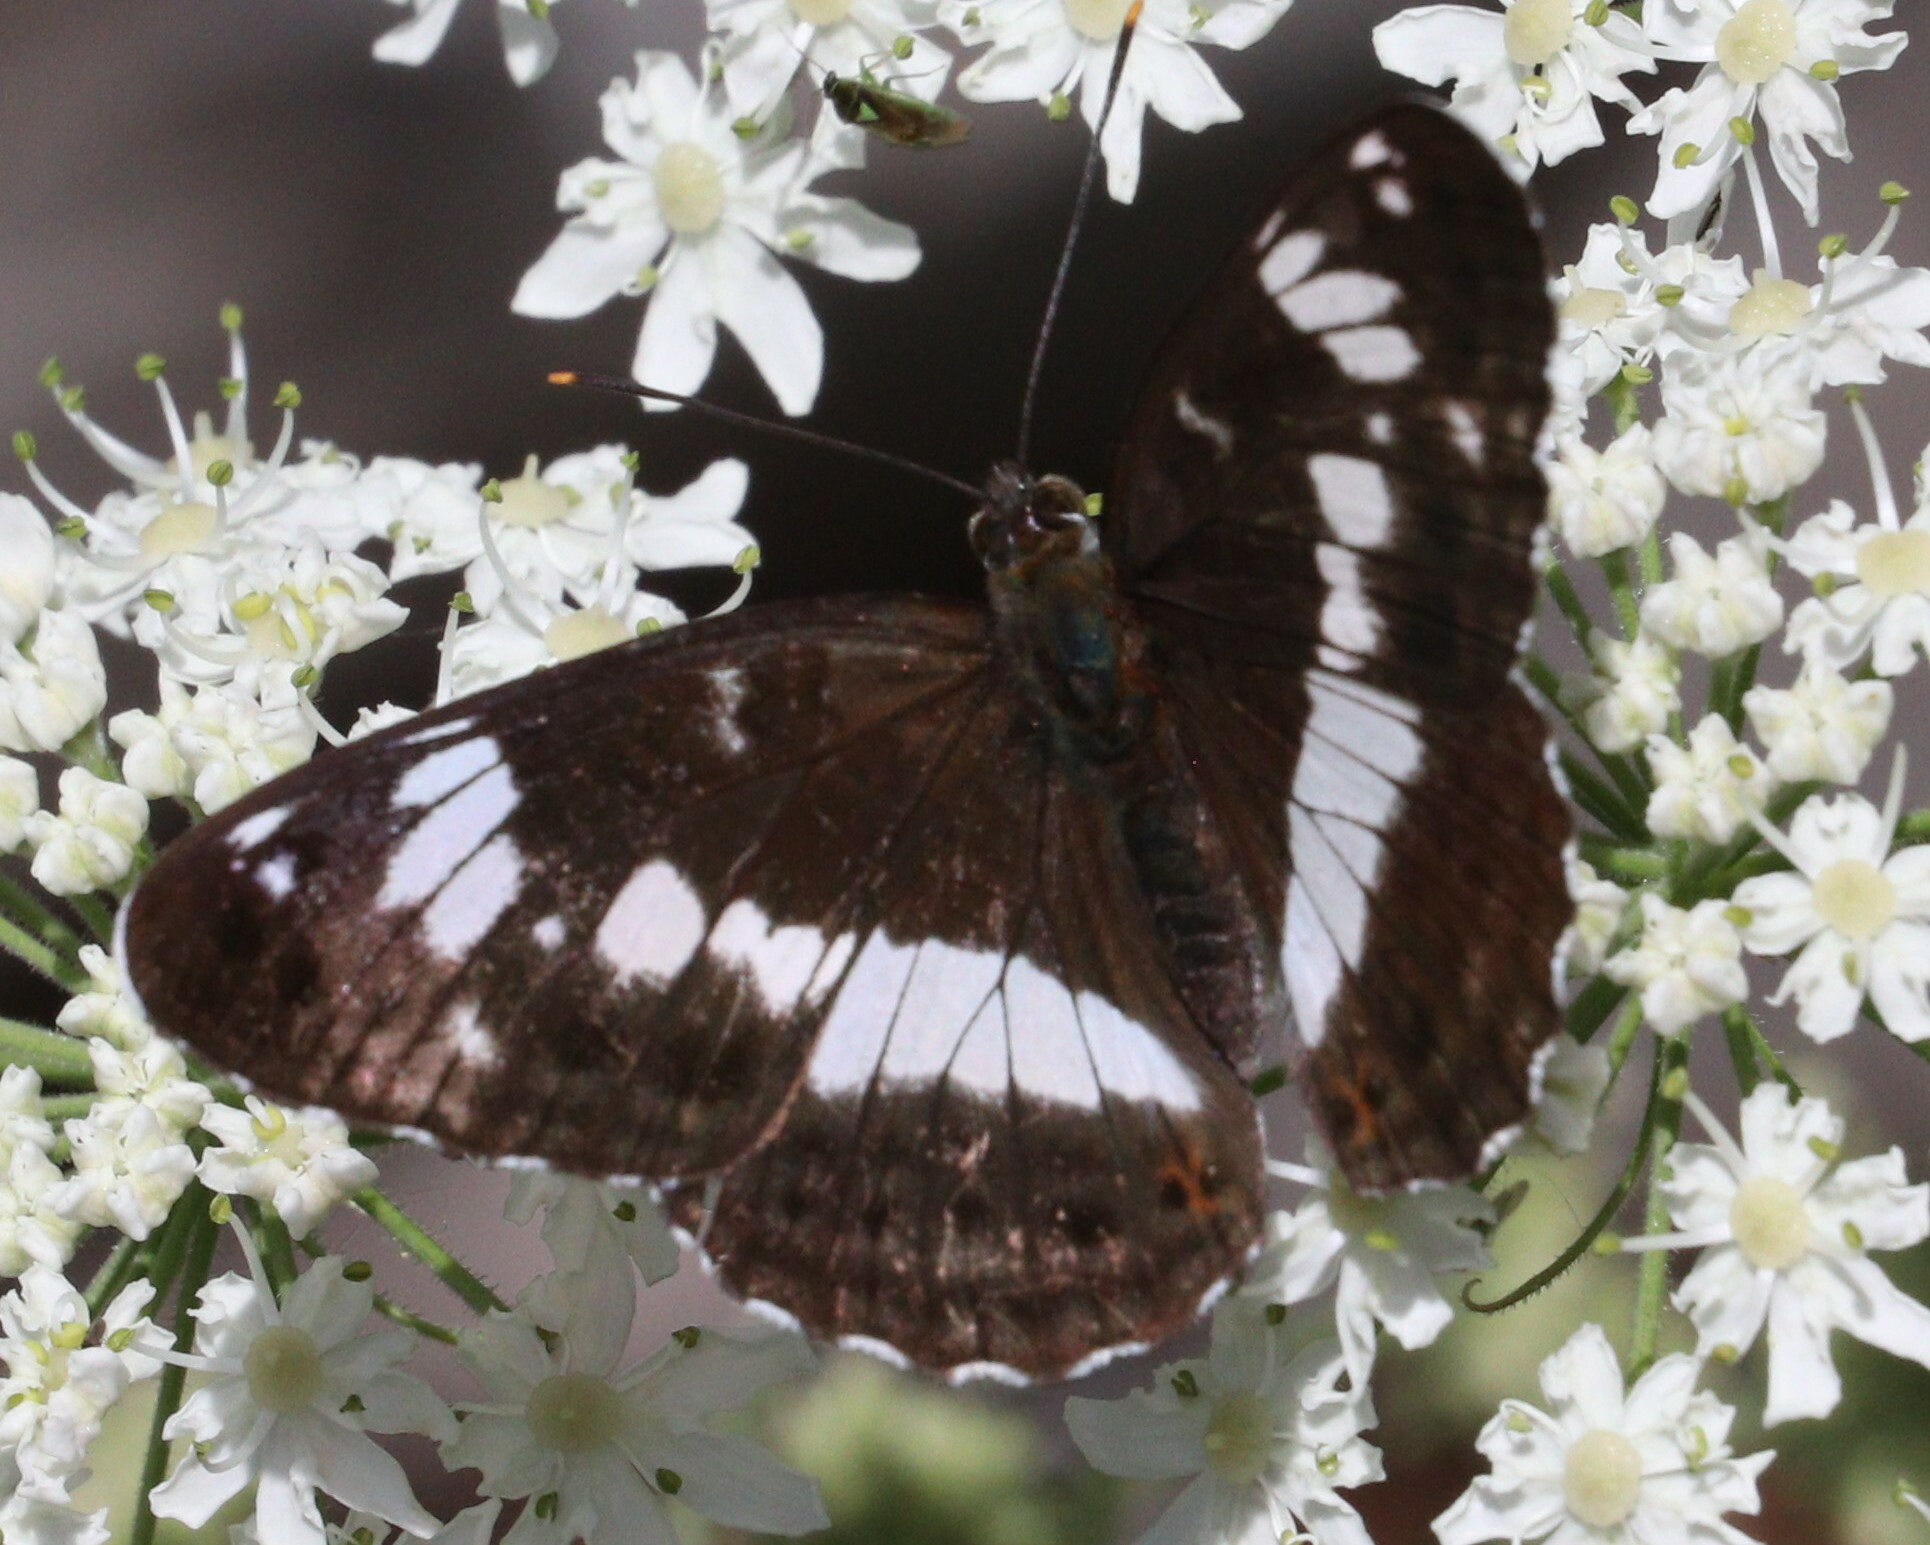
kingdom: Animalia
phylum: Arthropoda
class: Insecta
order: Lepidoptera
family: Nymphalidae
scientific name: Nymphalidae
